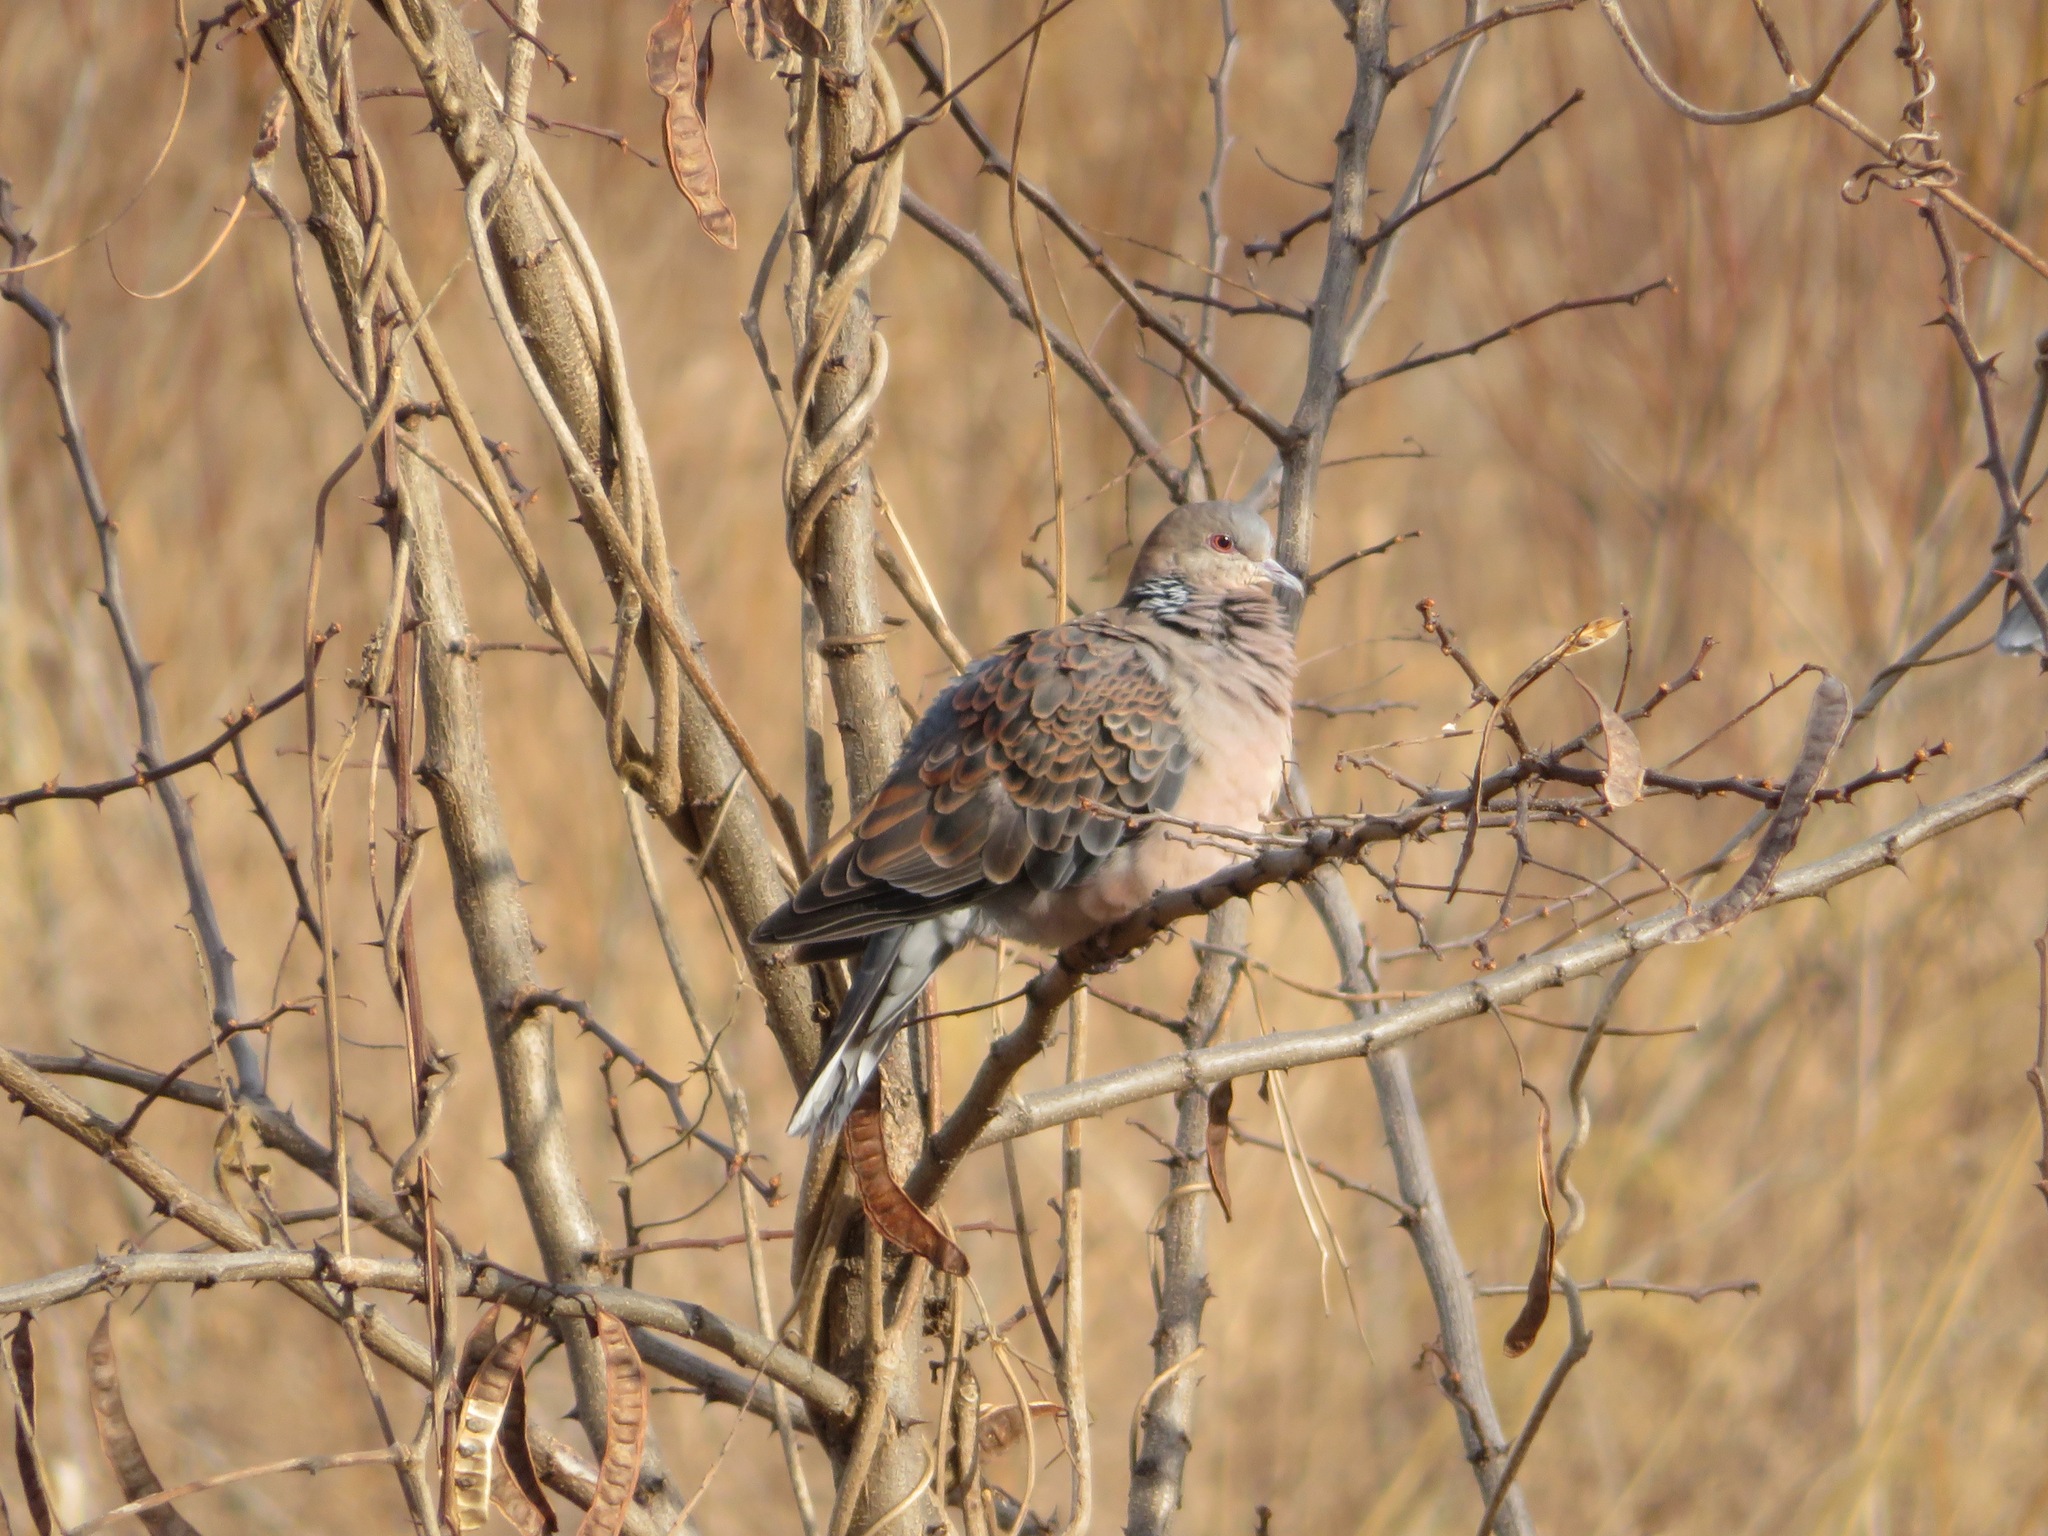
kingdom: Animalia
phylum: Chordata
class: Aves
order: Columbiformes
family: Columbidae
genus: Streptopelia
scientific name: Streptopelia orientalis
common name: Oriental turtle dove
